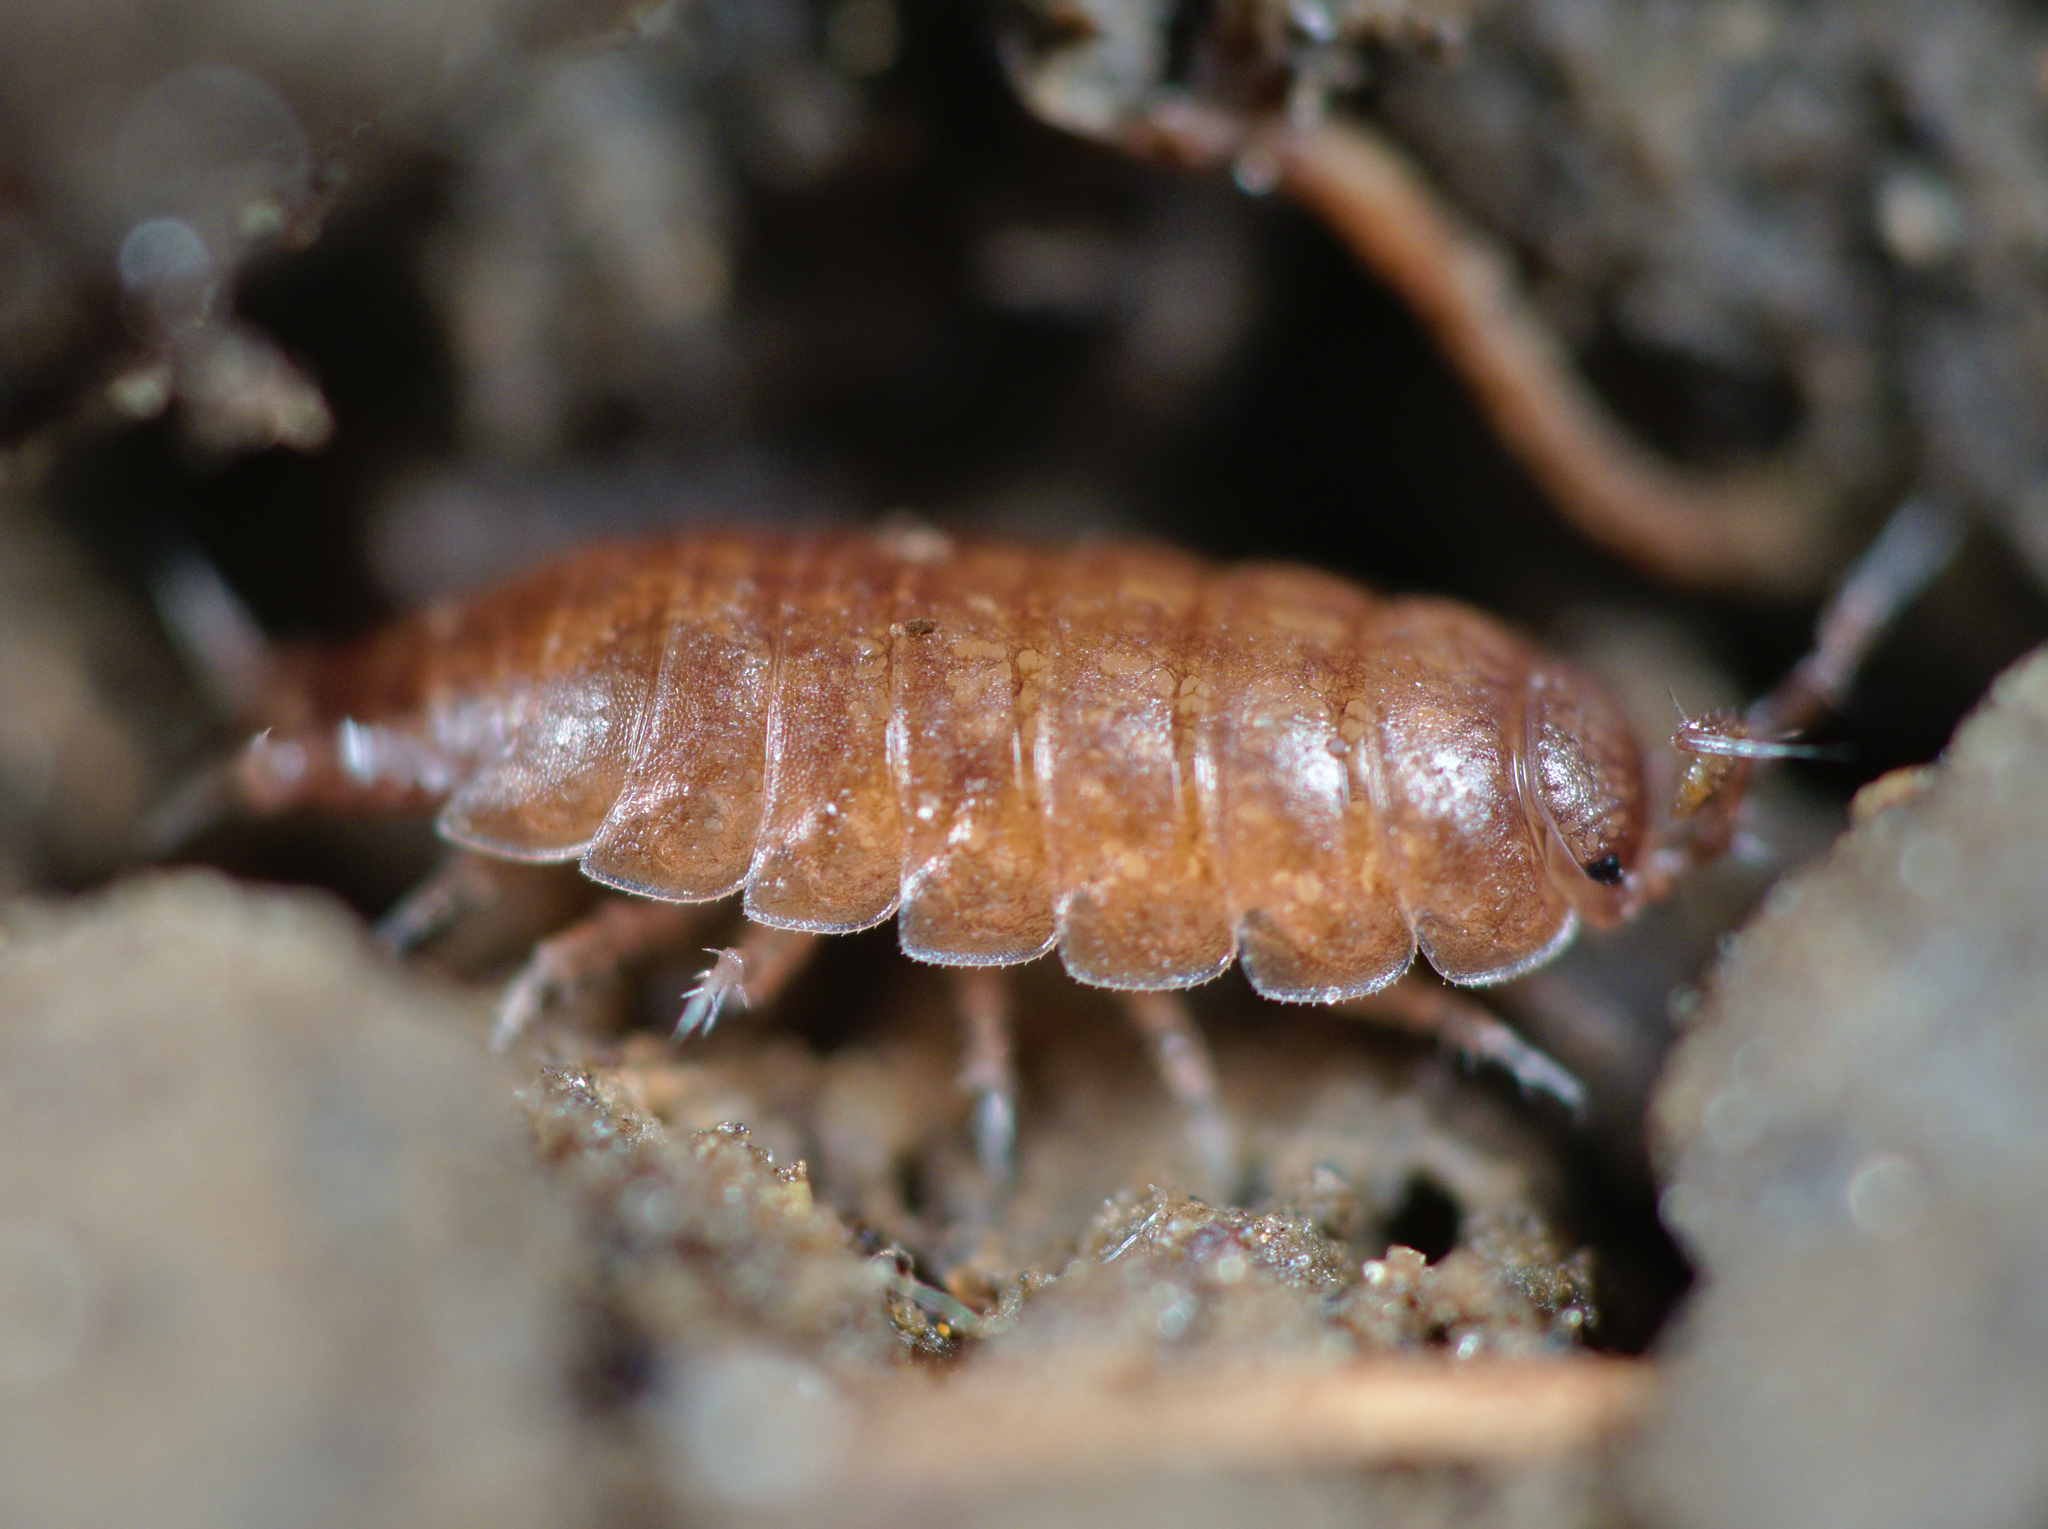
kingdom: Animalia
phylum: Arthropoda
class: Malacostraca
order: Isopoda
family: Trichoniscidae
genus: Trichoniscus
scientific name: Trichoniscus
